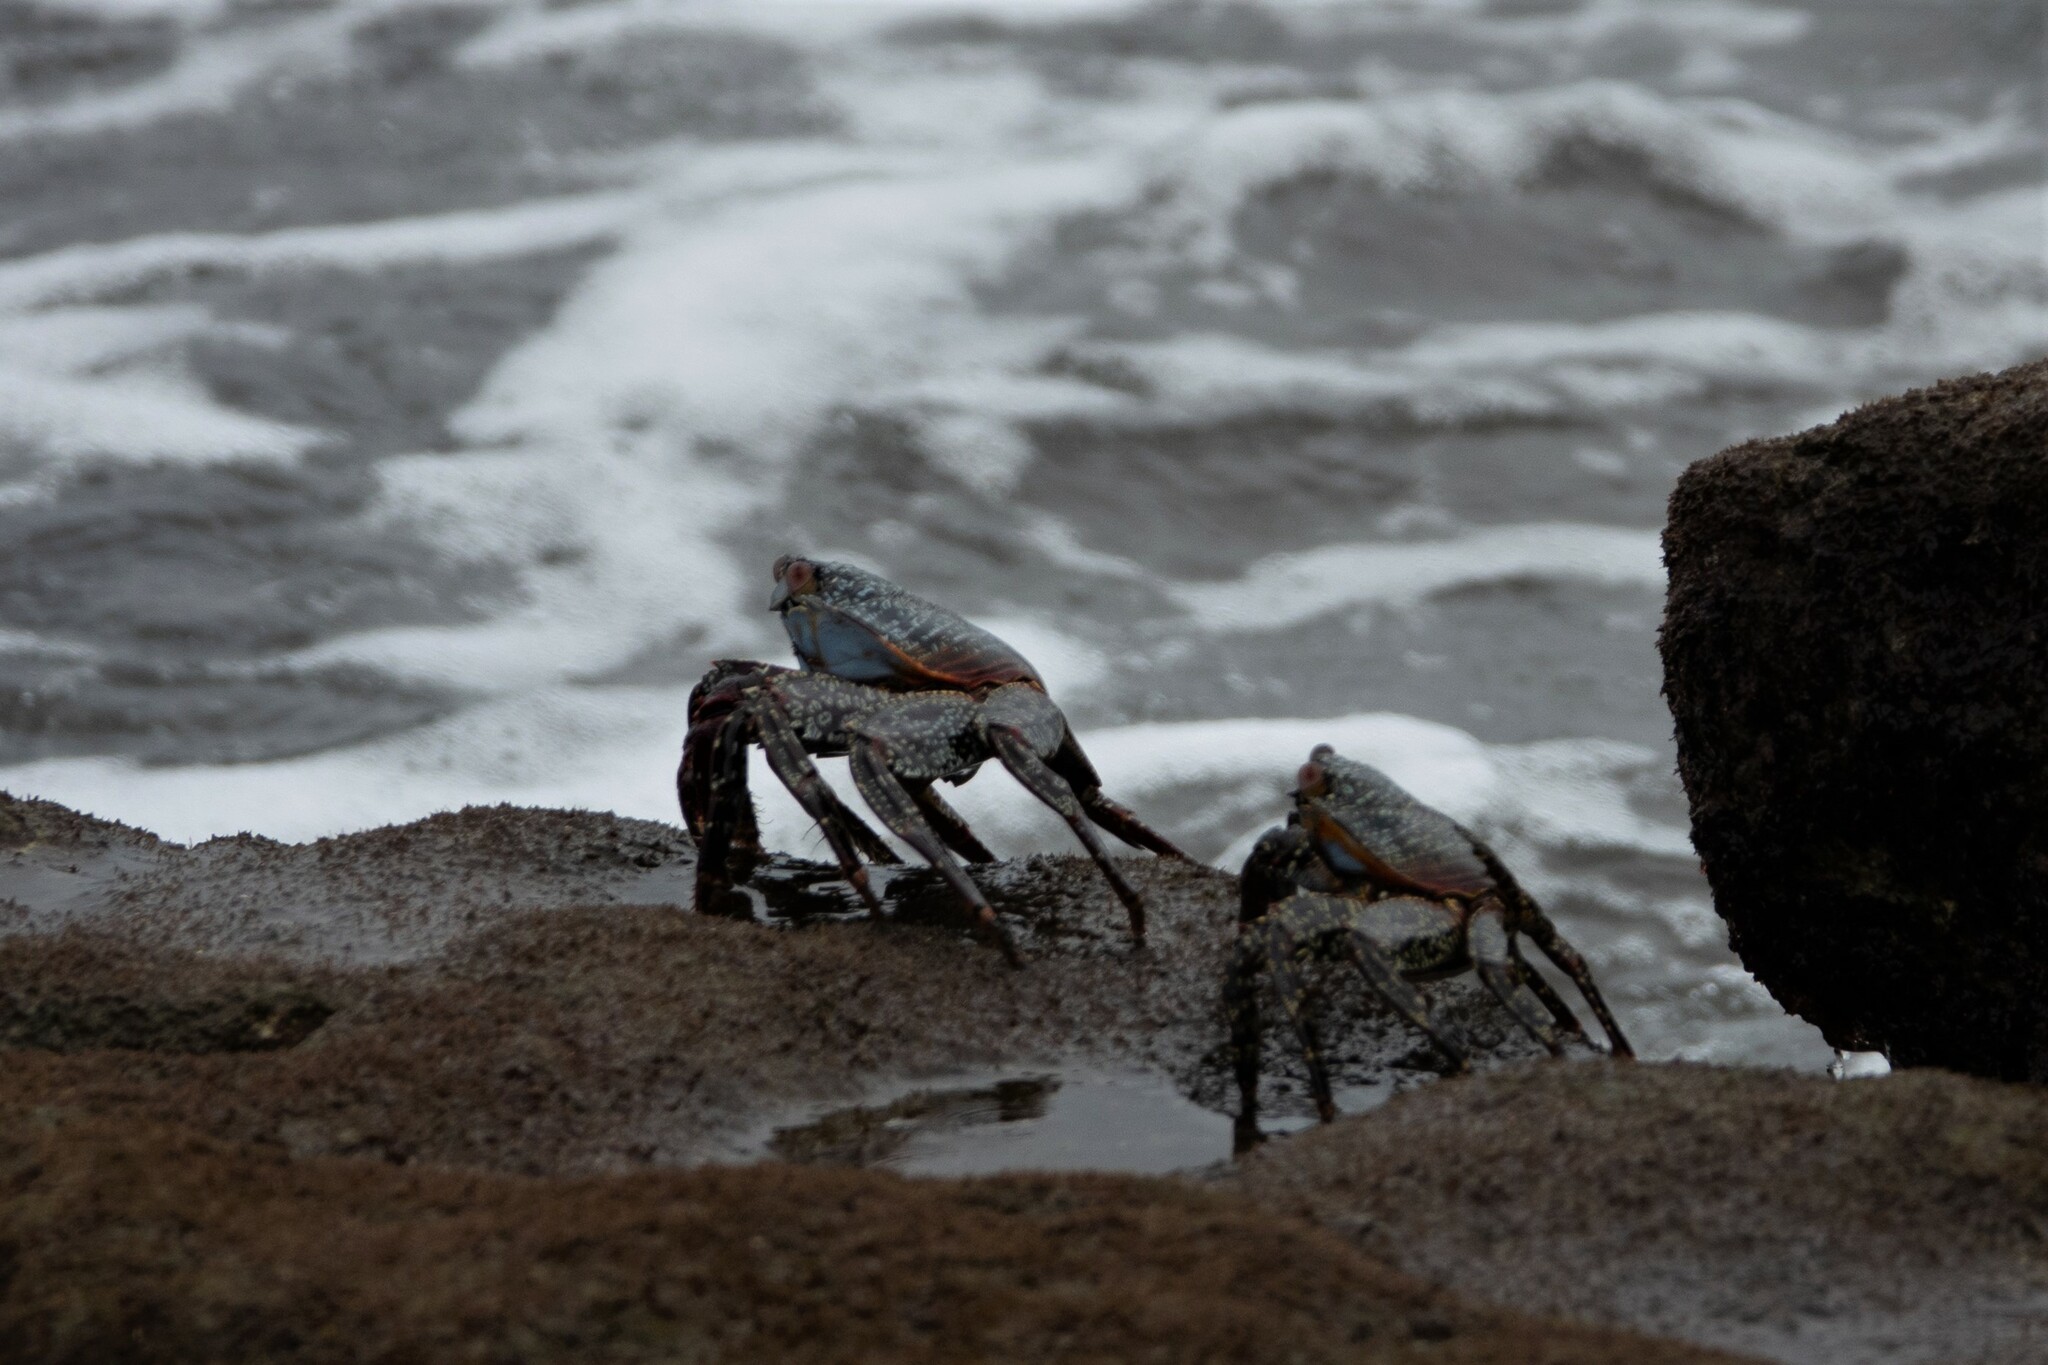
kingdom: Animalia
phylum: Arthropoda
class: Malacostraca
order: Decapoda
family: Grapsidae
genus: Grapsus
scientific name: Grapsus grapsus
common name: Sally lightfoot
